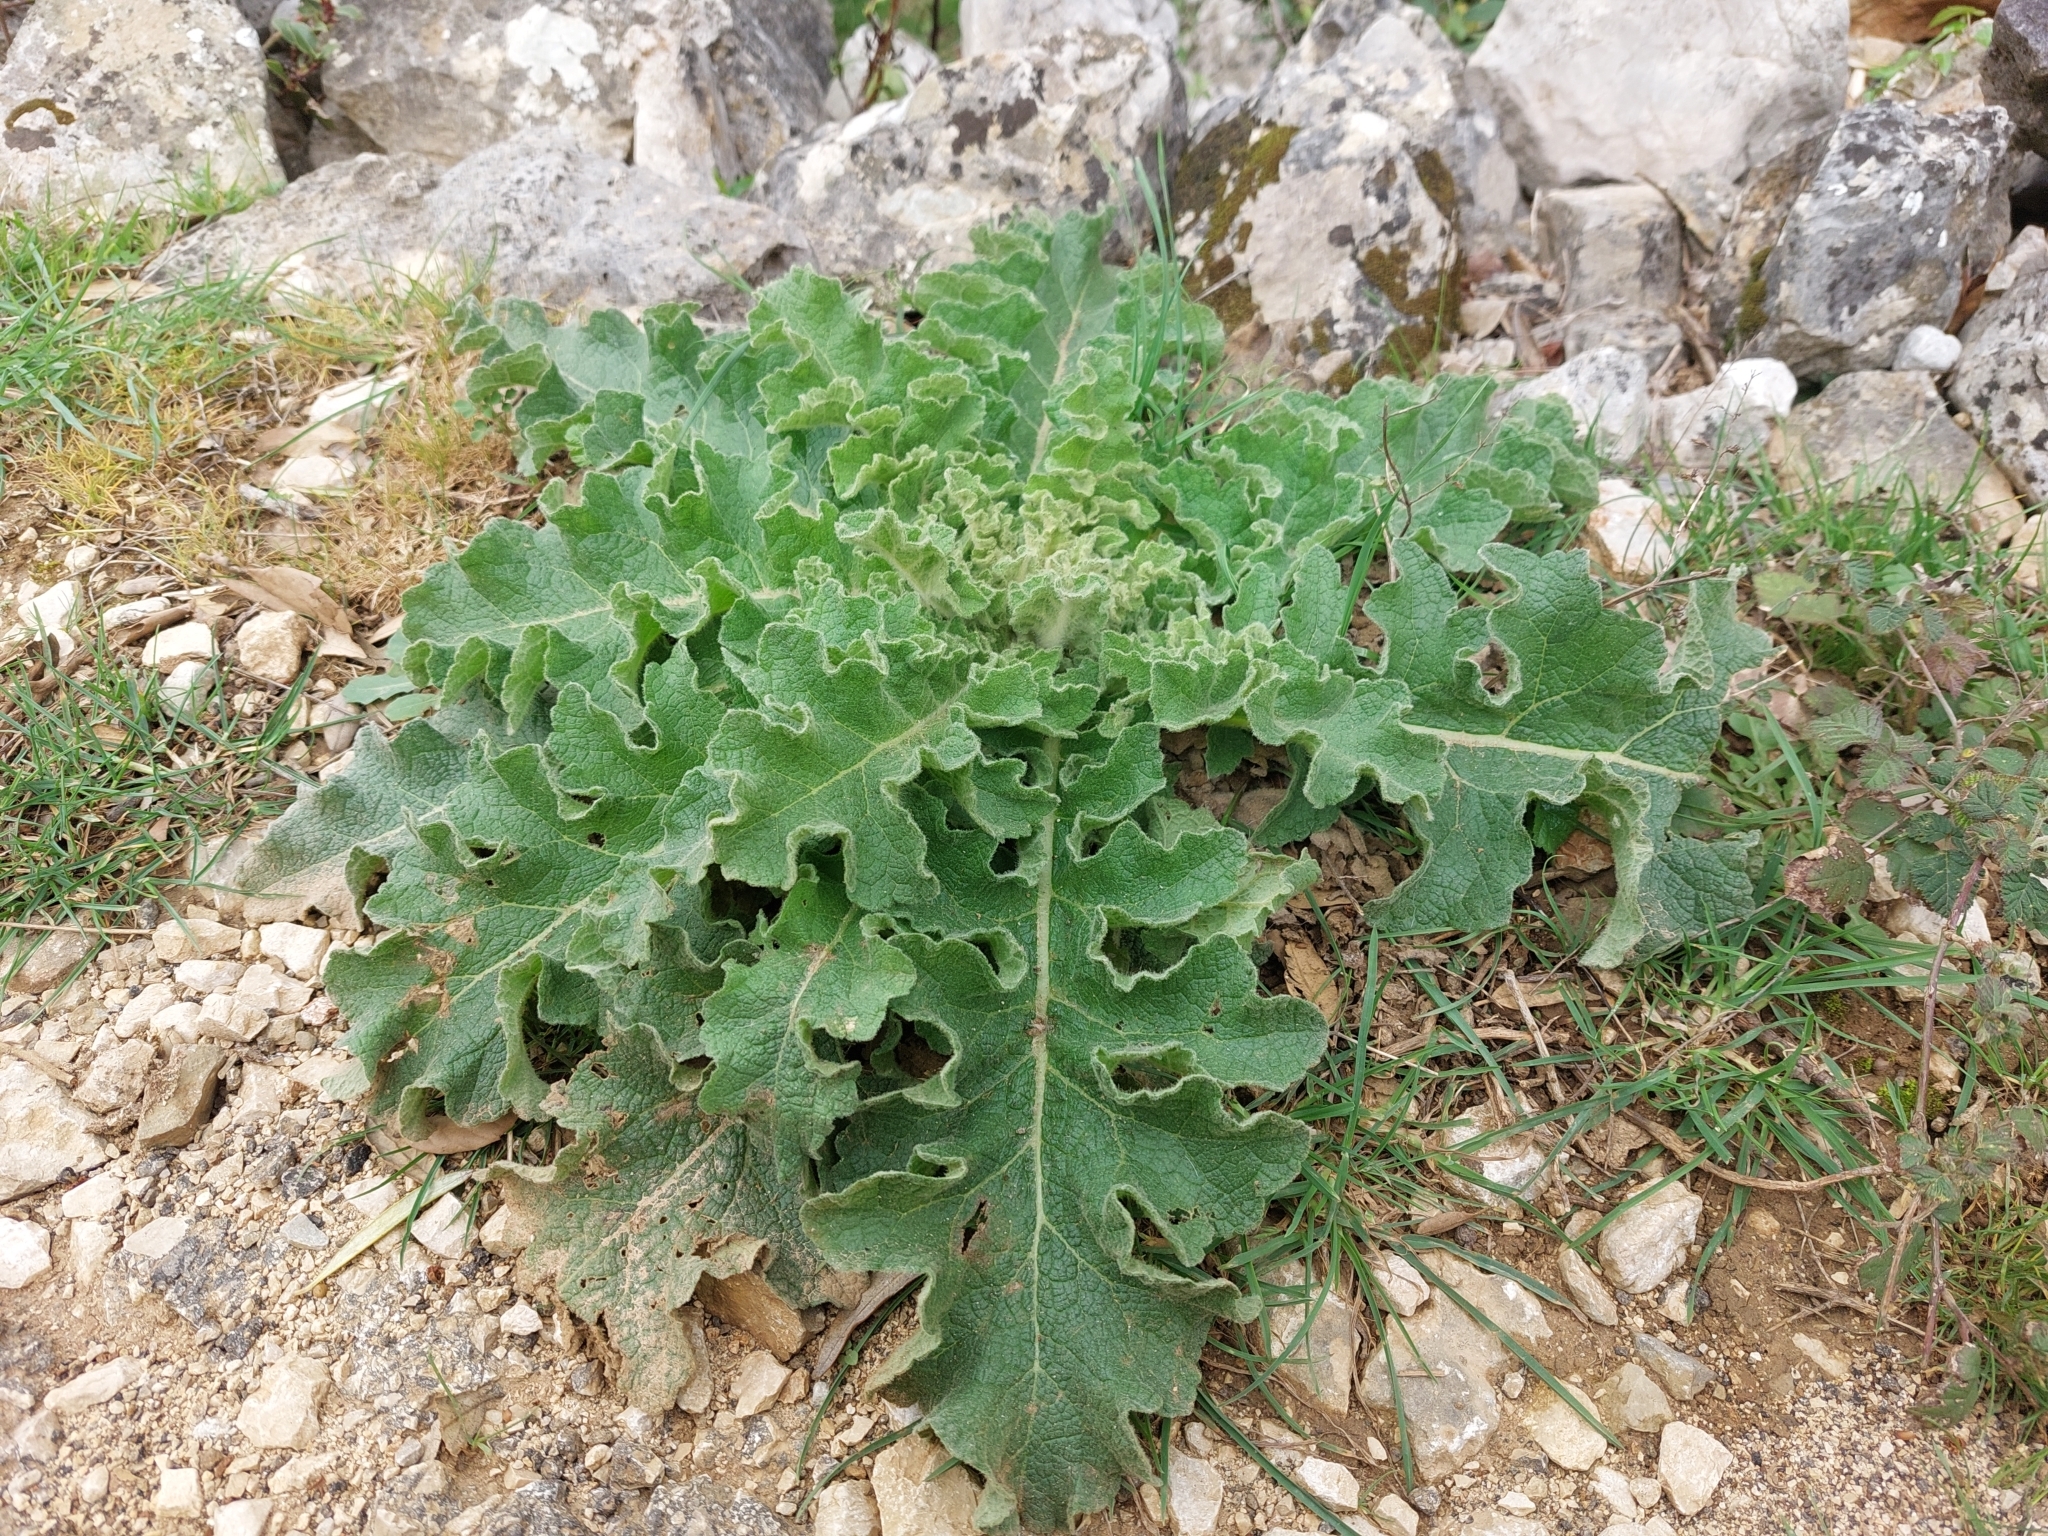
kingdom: Plantae
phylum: Tracheophyta
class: Magnoliopsida
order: Lamiales
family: Scrophulariaceae
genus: Verbascum
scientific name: Verbascum sinuatum
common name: Wavyleaf mullein
